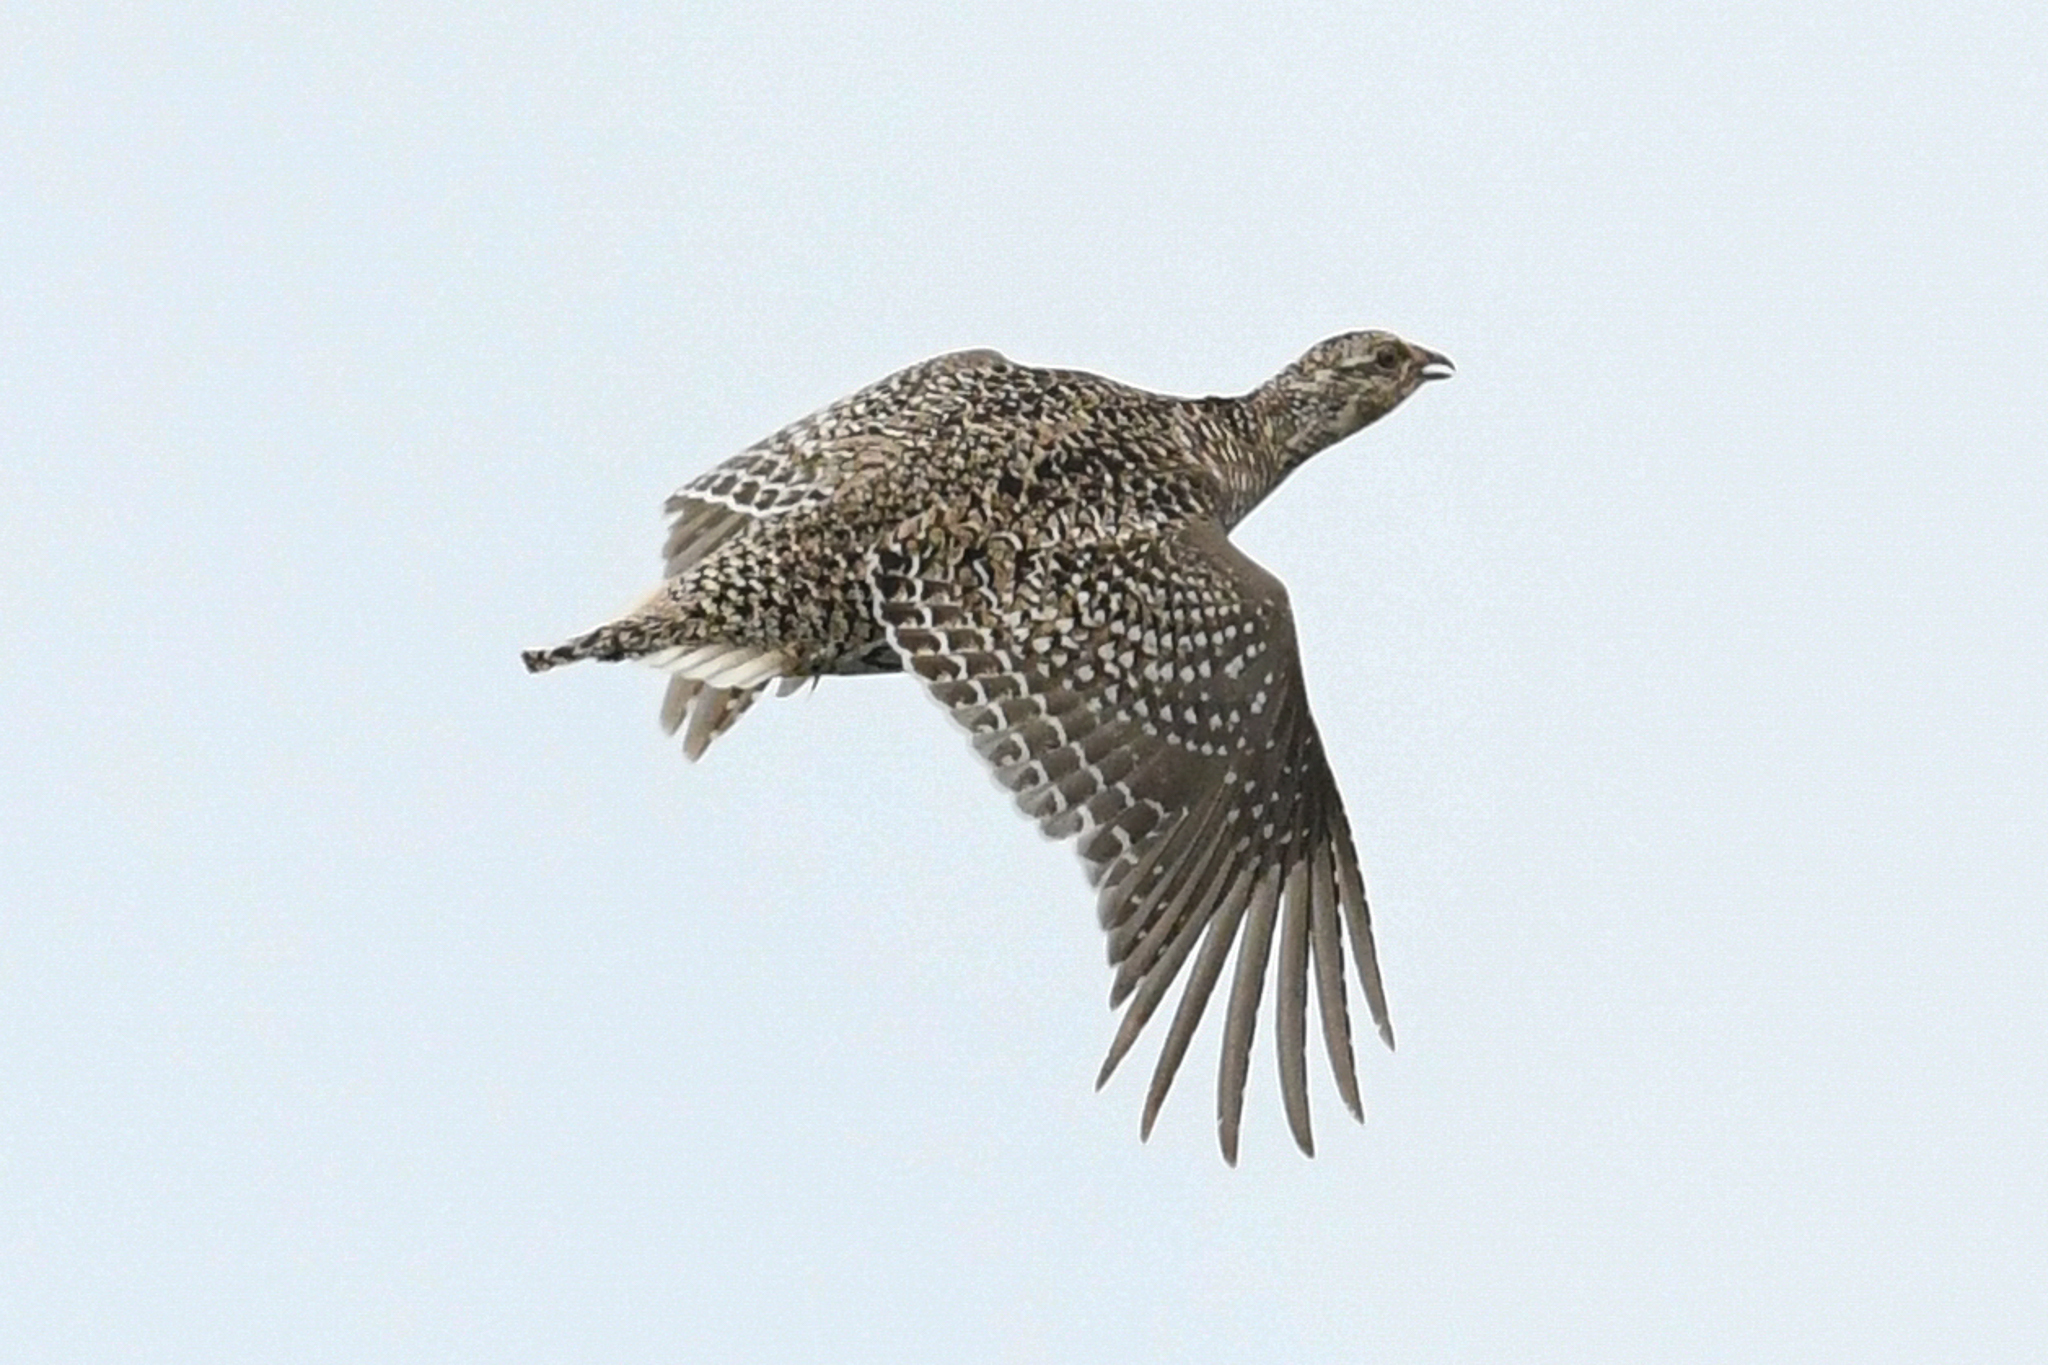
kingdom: Animalia
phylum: Chordata
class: Aves
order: Galliformes
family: Phasianidae
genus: Tympanuchus
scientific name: Tympanuchus phasianellus
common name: Sharp-tailed grouse
